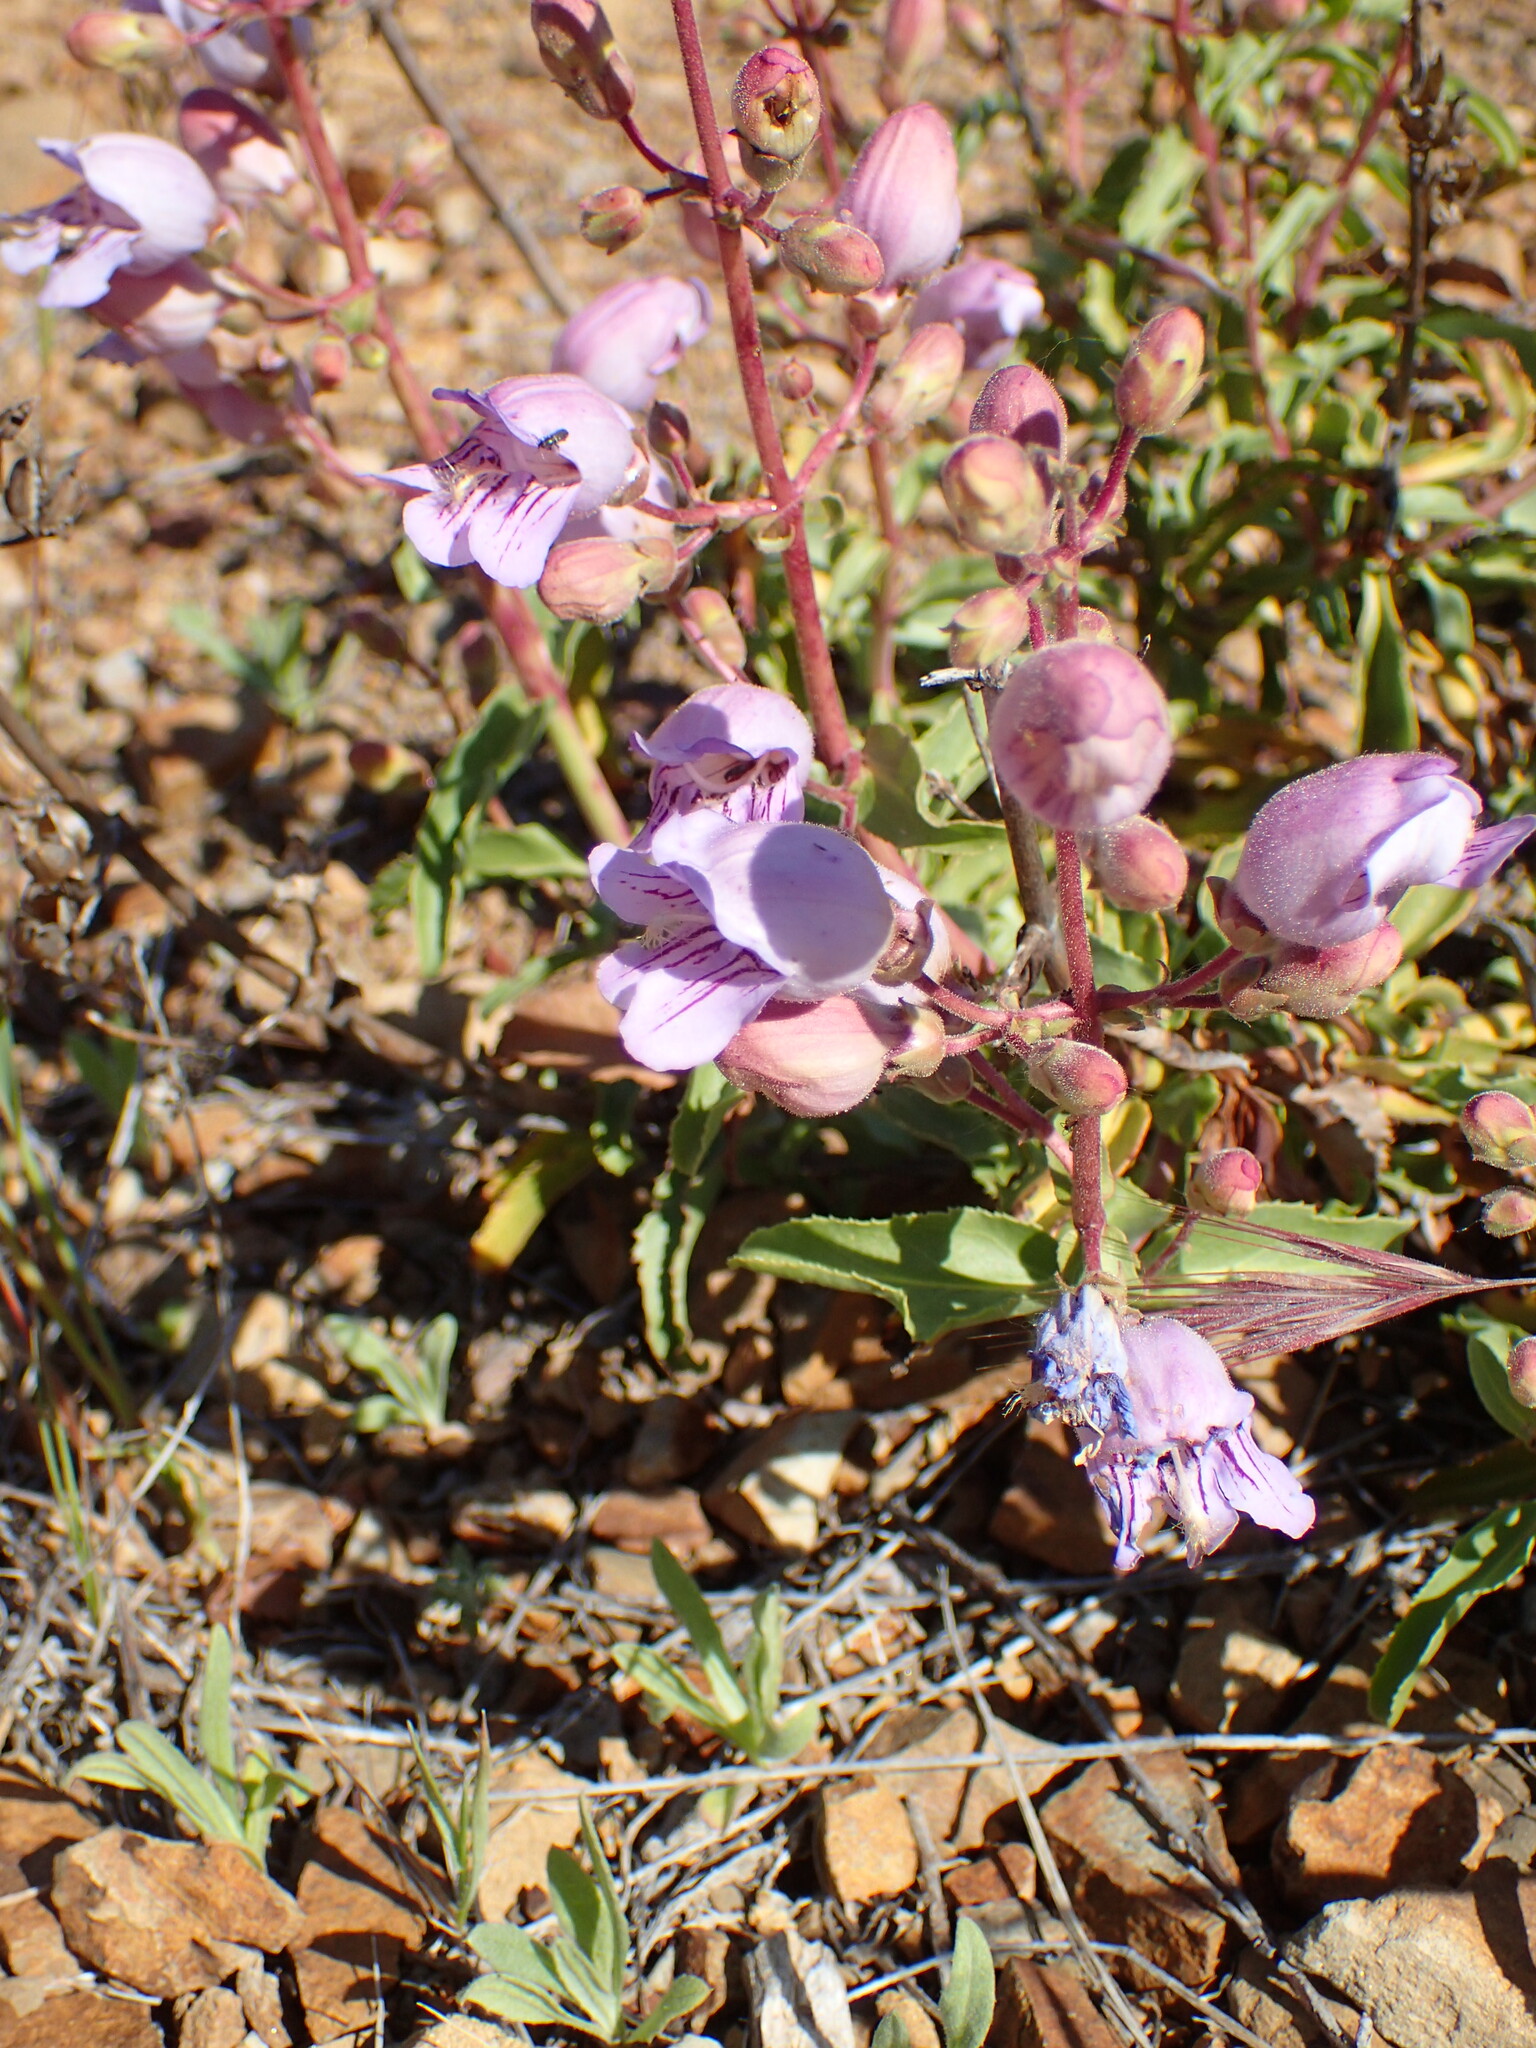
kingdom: Plantae
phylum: Tracheophyta
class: Magnoliopsida
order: Lamiales
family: Plantaginaceae
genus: Penstemon
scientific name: Penstemon grinnellii
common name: Grinnell's beardtongue
